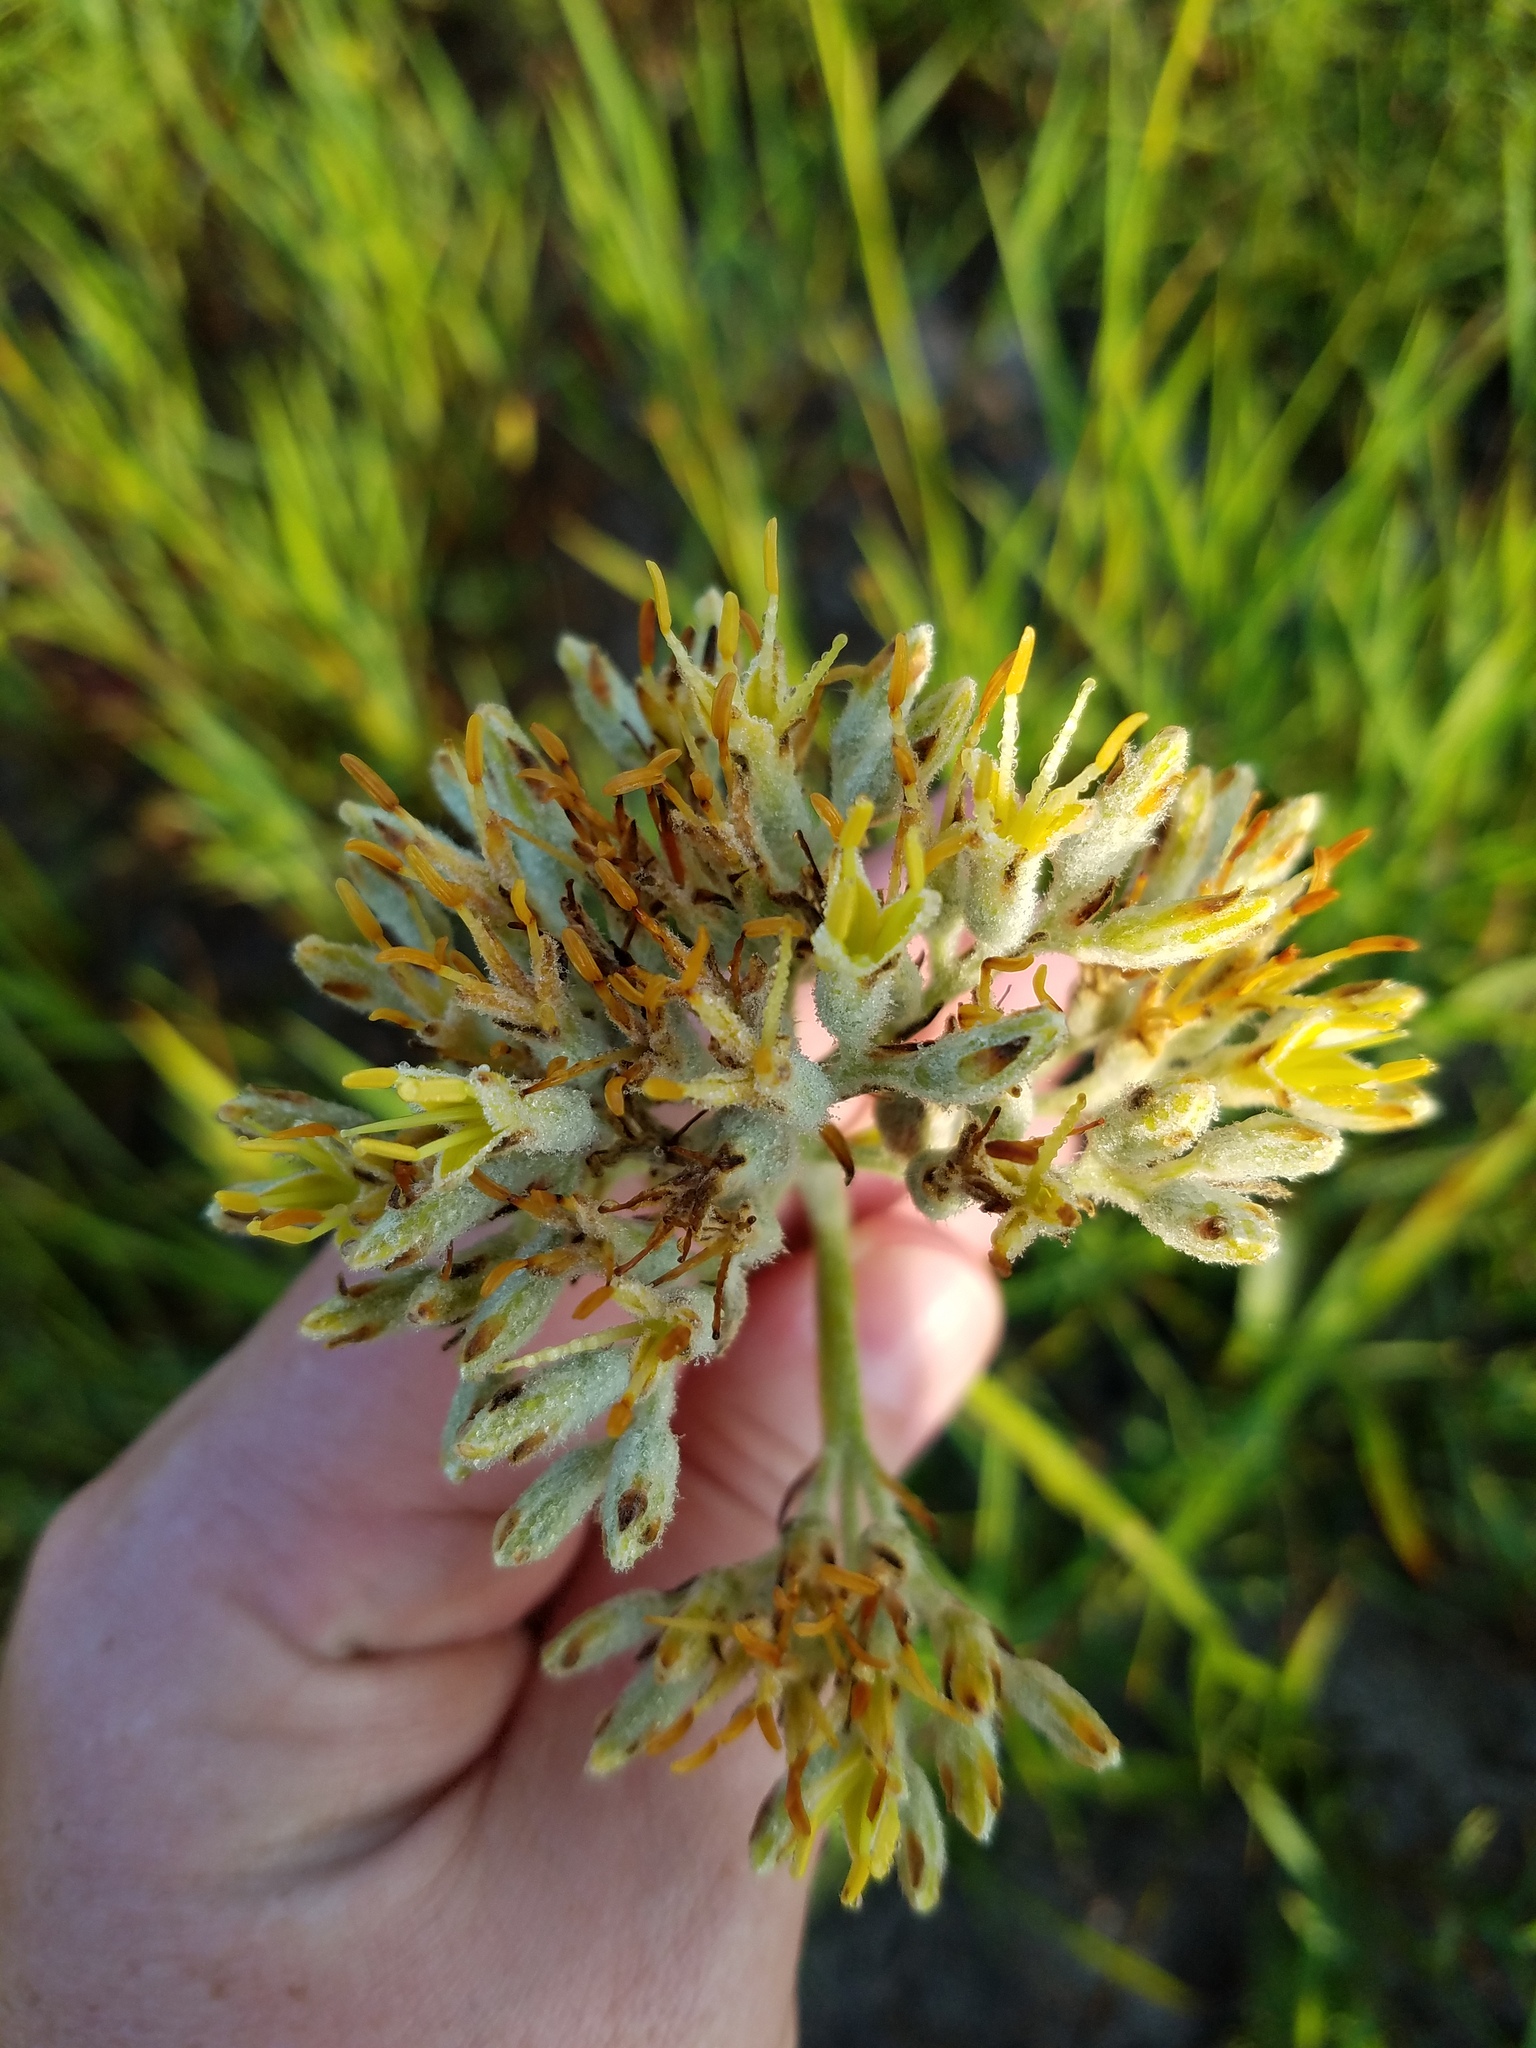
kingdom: Plantae
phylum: Tracheophyta
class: Liliopsida
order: Commelinales
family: Haemodoraceae
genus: Lachnanthes
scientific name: Lachnanthes caroliana
